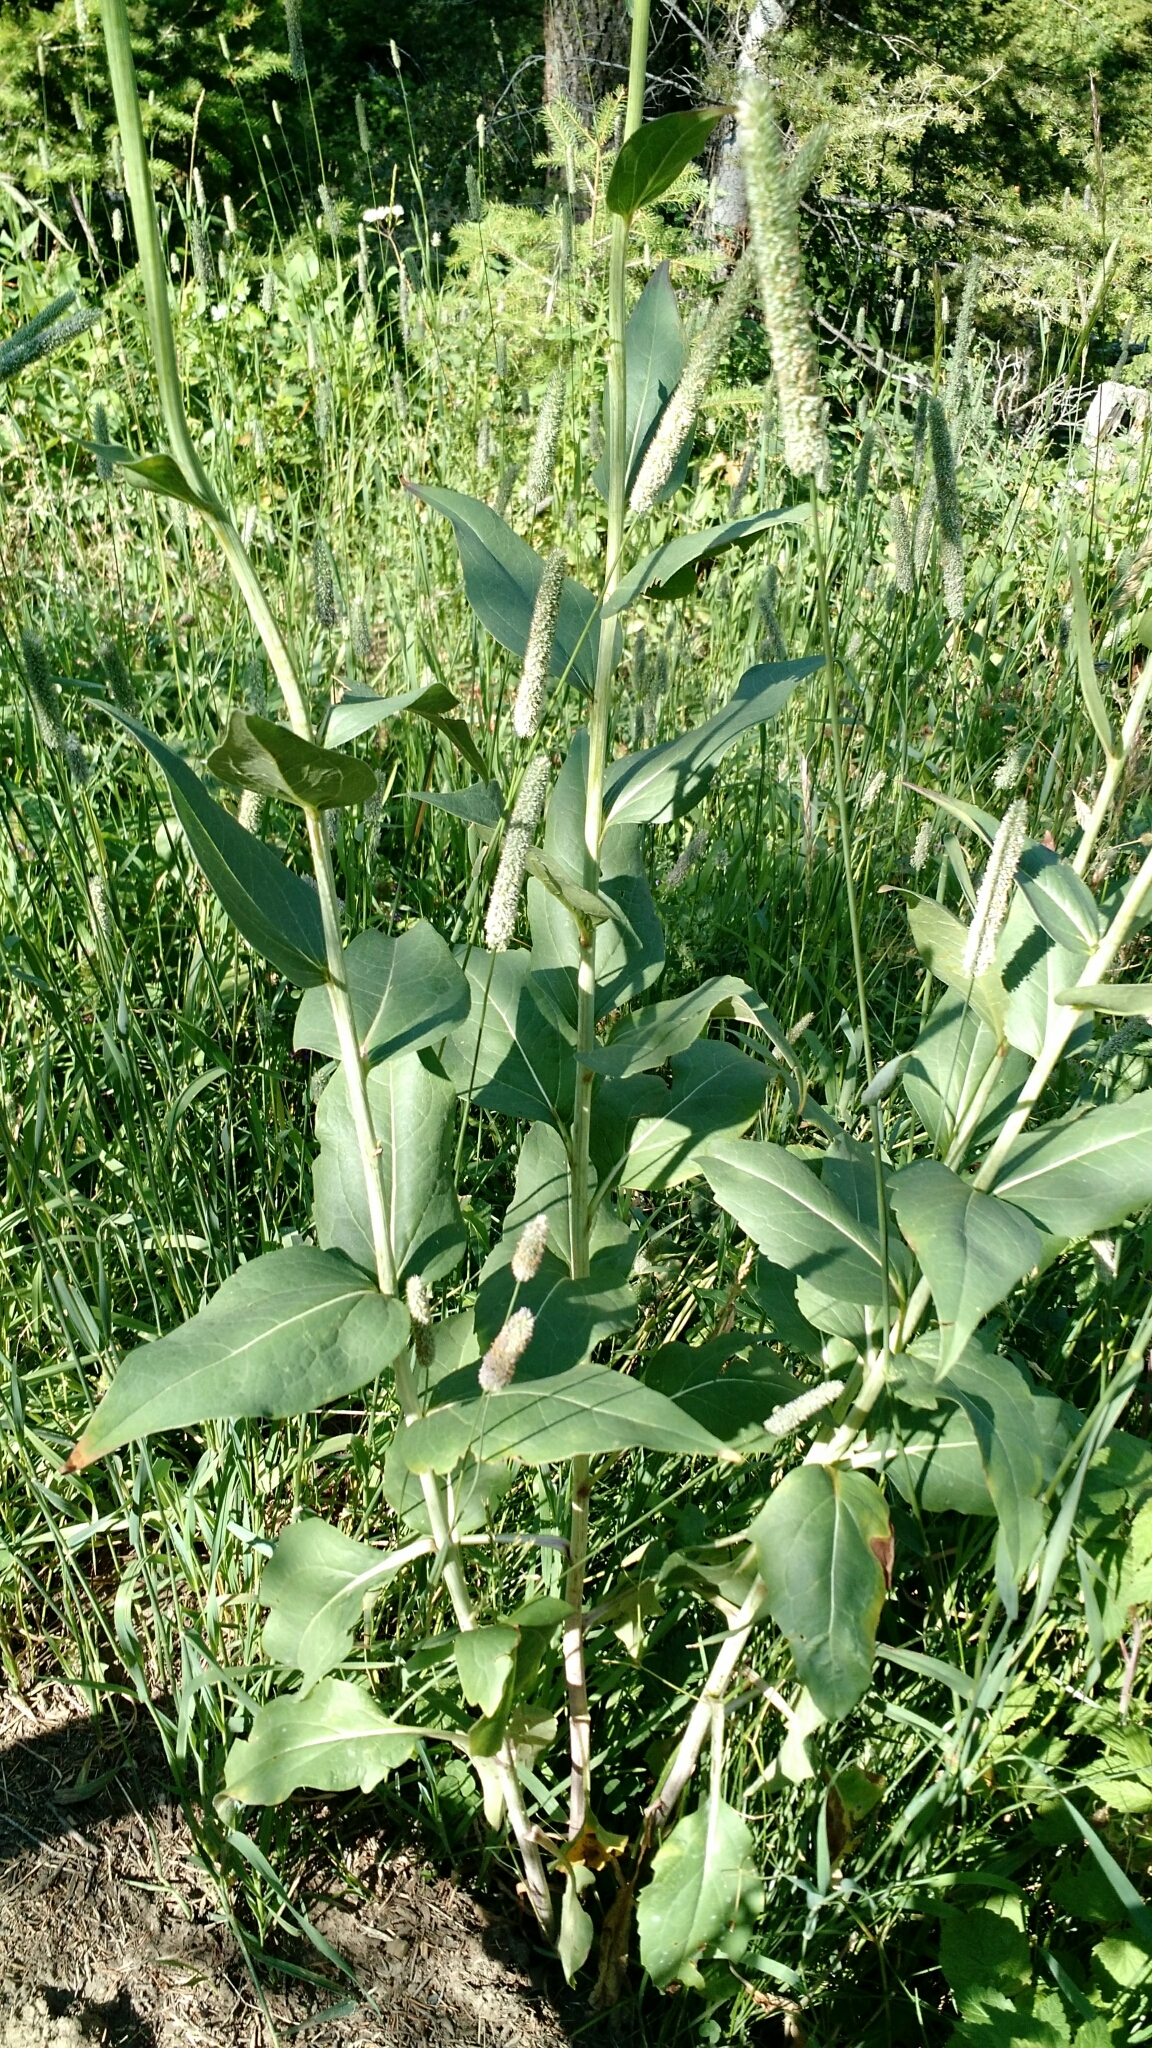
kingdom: Plantae
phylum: Tracheophyta
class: Magnoliopsida
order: Asterales
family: Asteraceae
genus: Rudbeckia
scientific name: Rudbeckia occidentalis
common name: Western coneflower
